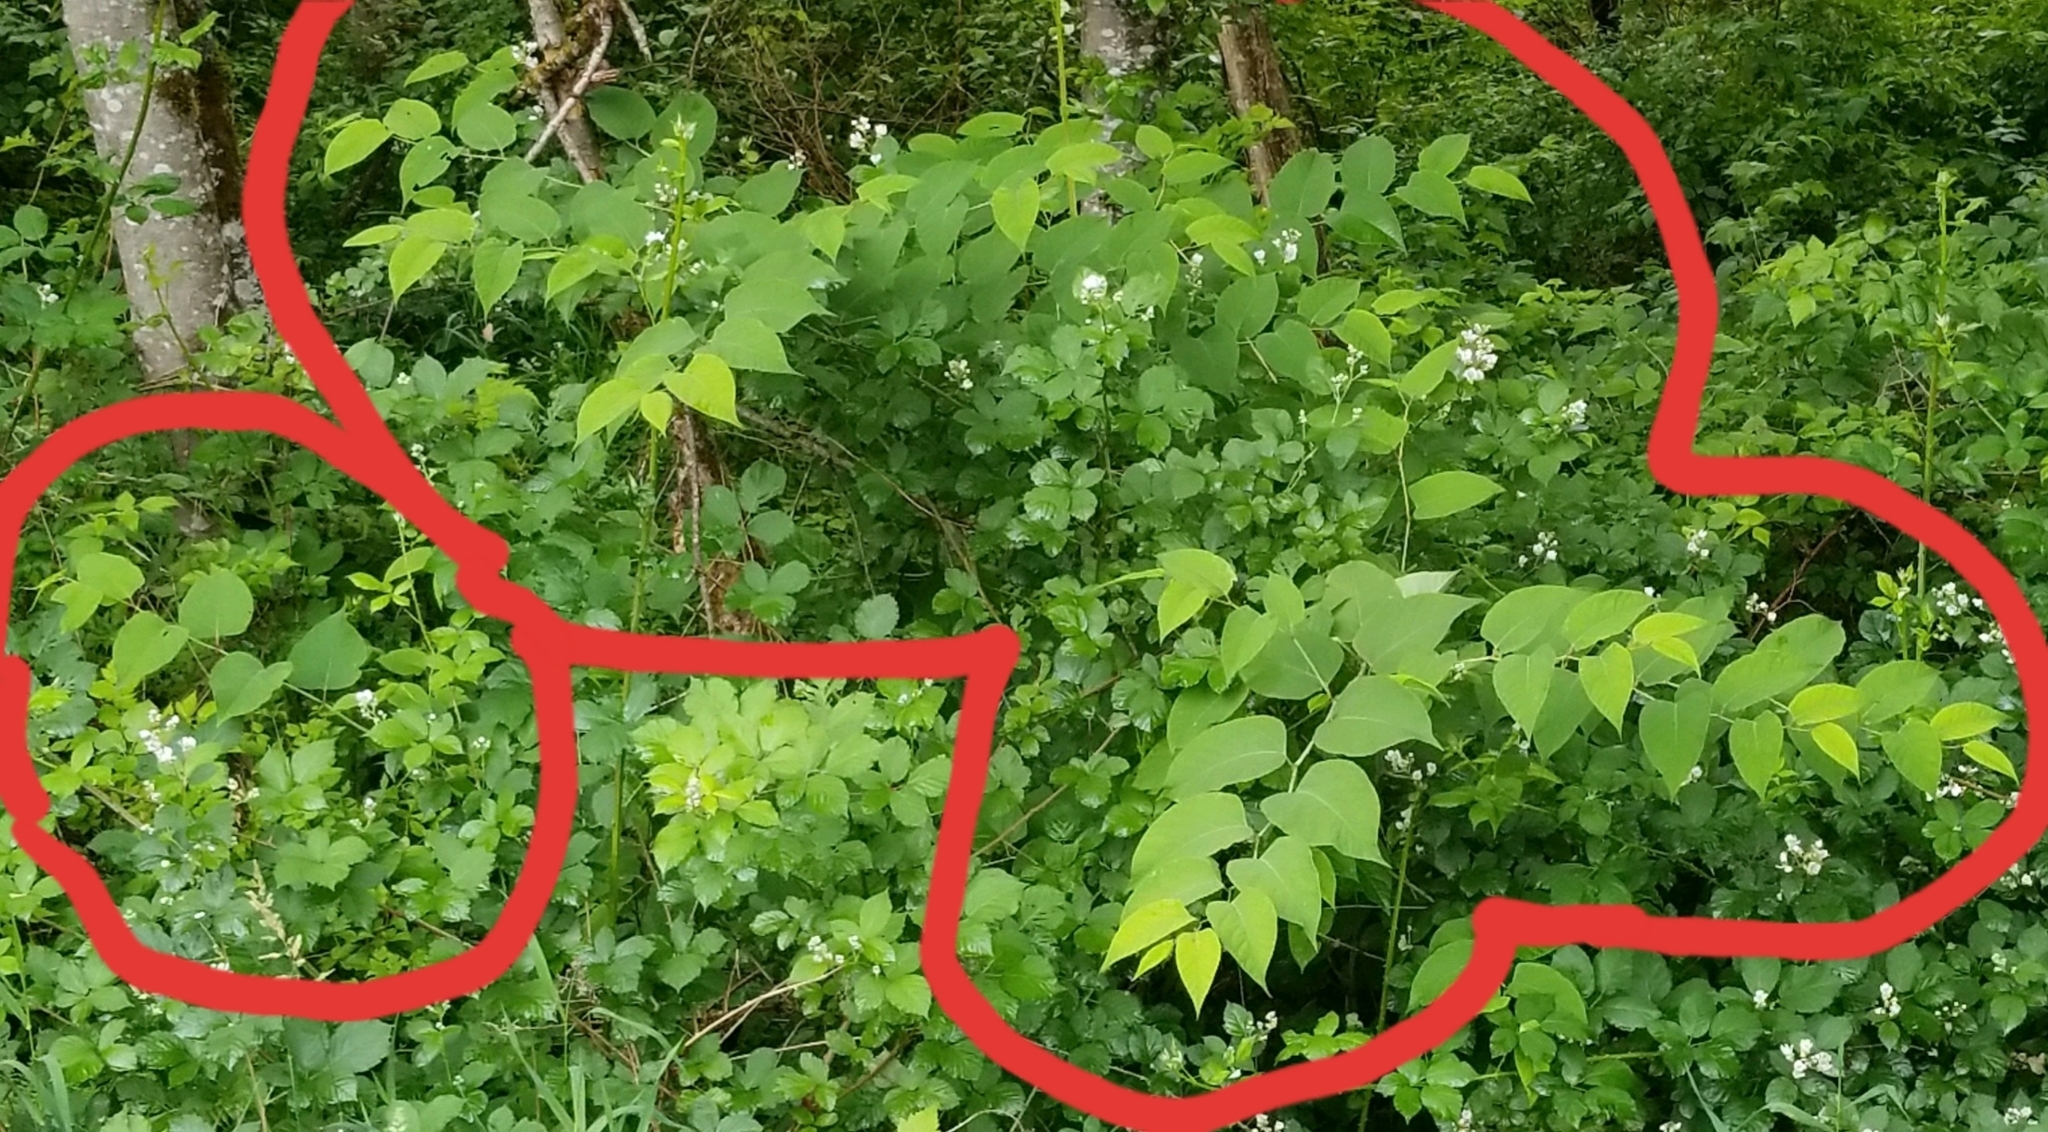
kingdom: Plantae
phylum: Tracheophyta
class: Magnoliopsida
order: Caryophyllales
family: Polygonaceae
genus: Reynoutria
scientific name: Reynoutria bohemica
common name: Bohemian knotweed
